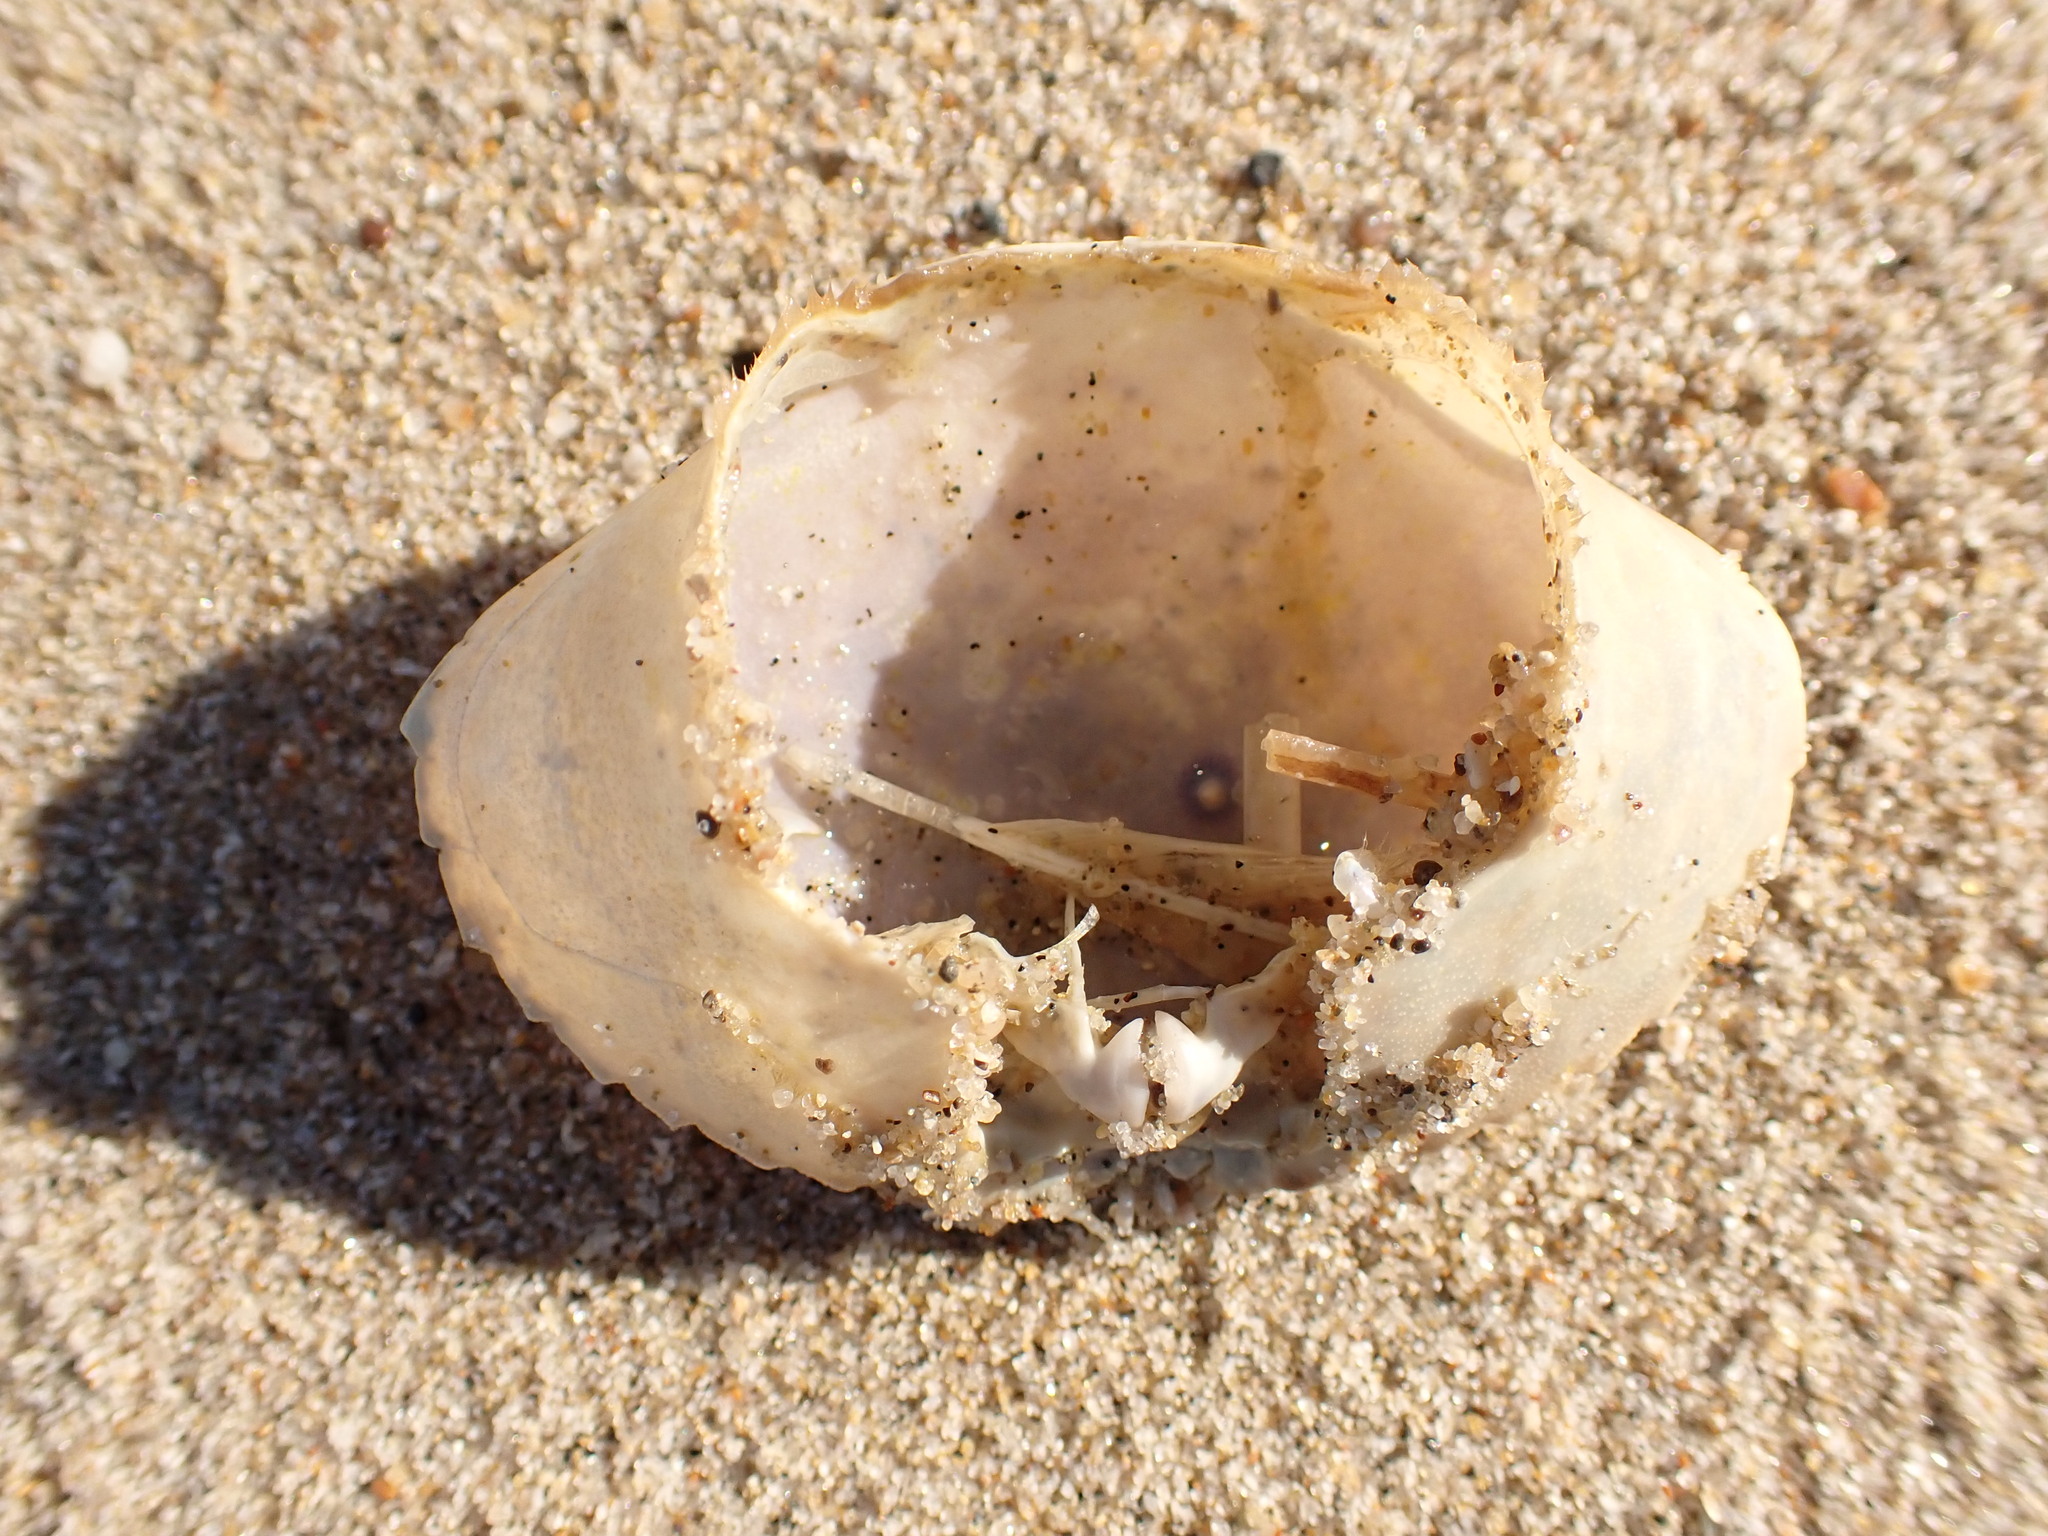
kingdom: Animalia
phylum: Arthropoda
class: Malacostraca
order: Decapoda
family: Cancridae
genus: Metacarcinus
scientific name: Metacarcinus gracilis
